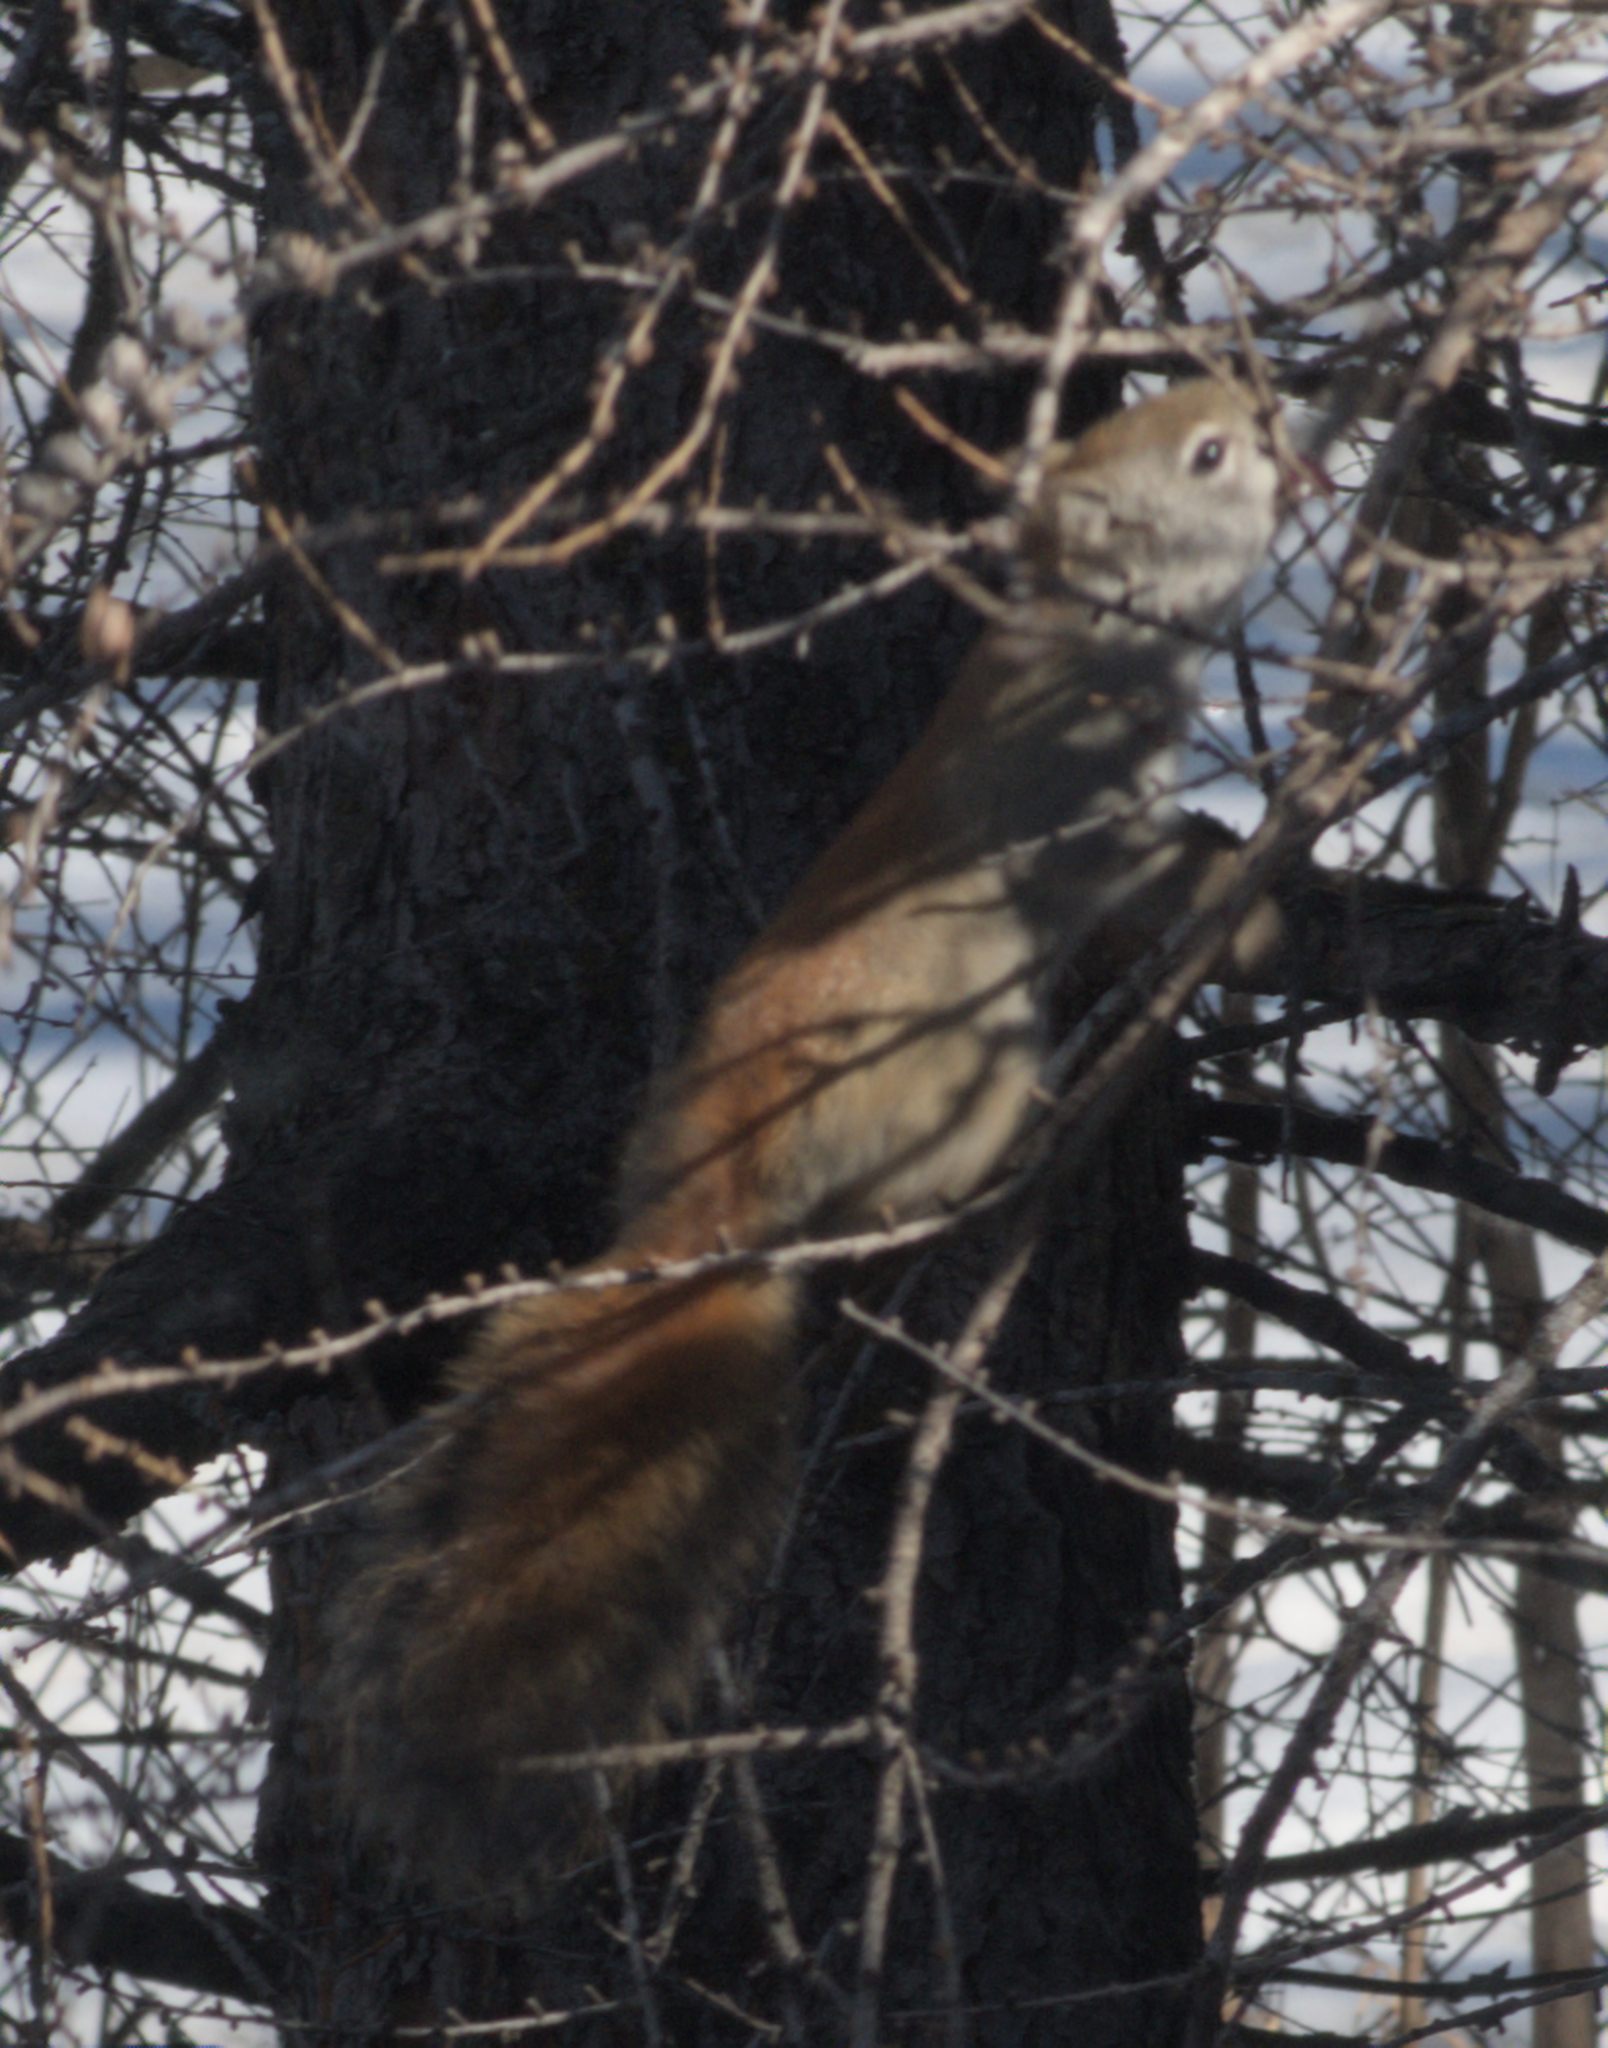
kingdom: Animalia
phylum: Chordata
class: Mammalia
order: Rodentia
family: Sciuridae
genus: Tamiasciurus
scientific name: Tamiasciurus hudsonicus
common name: Red squirrel
